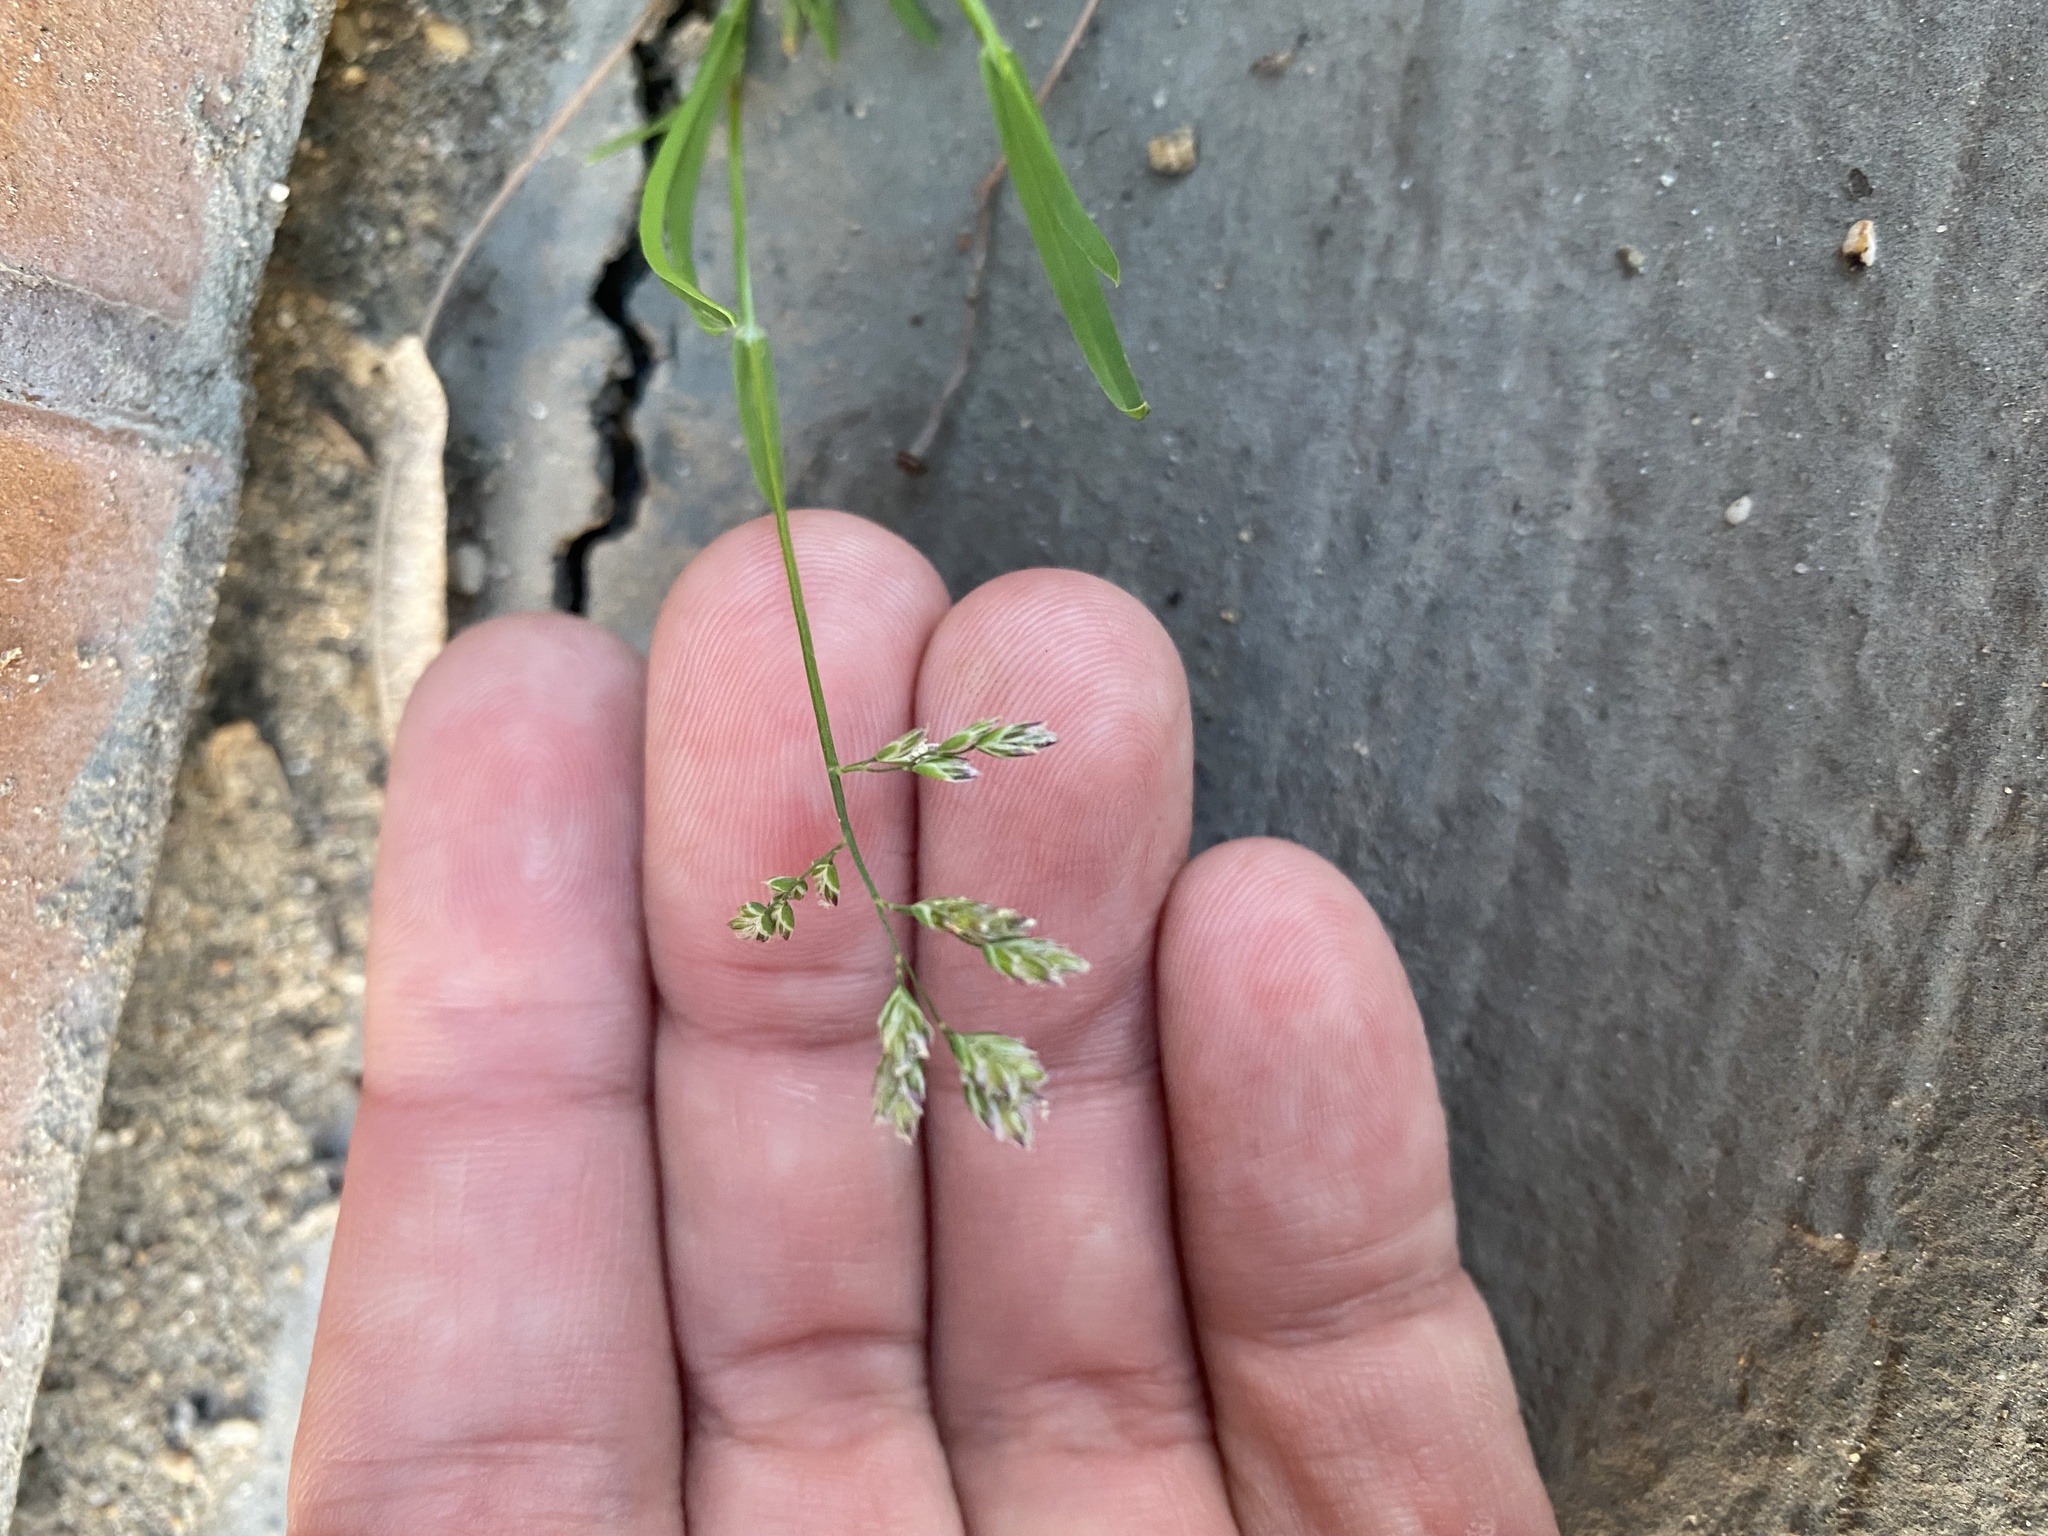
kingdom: Plantae
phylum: Tracheophyta
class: Liliopsida
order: Poales
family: Poaceae
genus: Poa
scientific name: Poa annua
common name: Annual bluegrass
